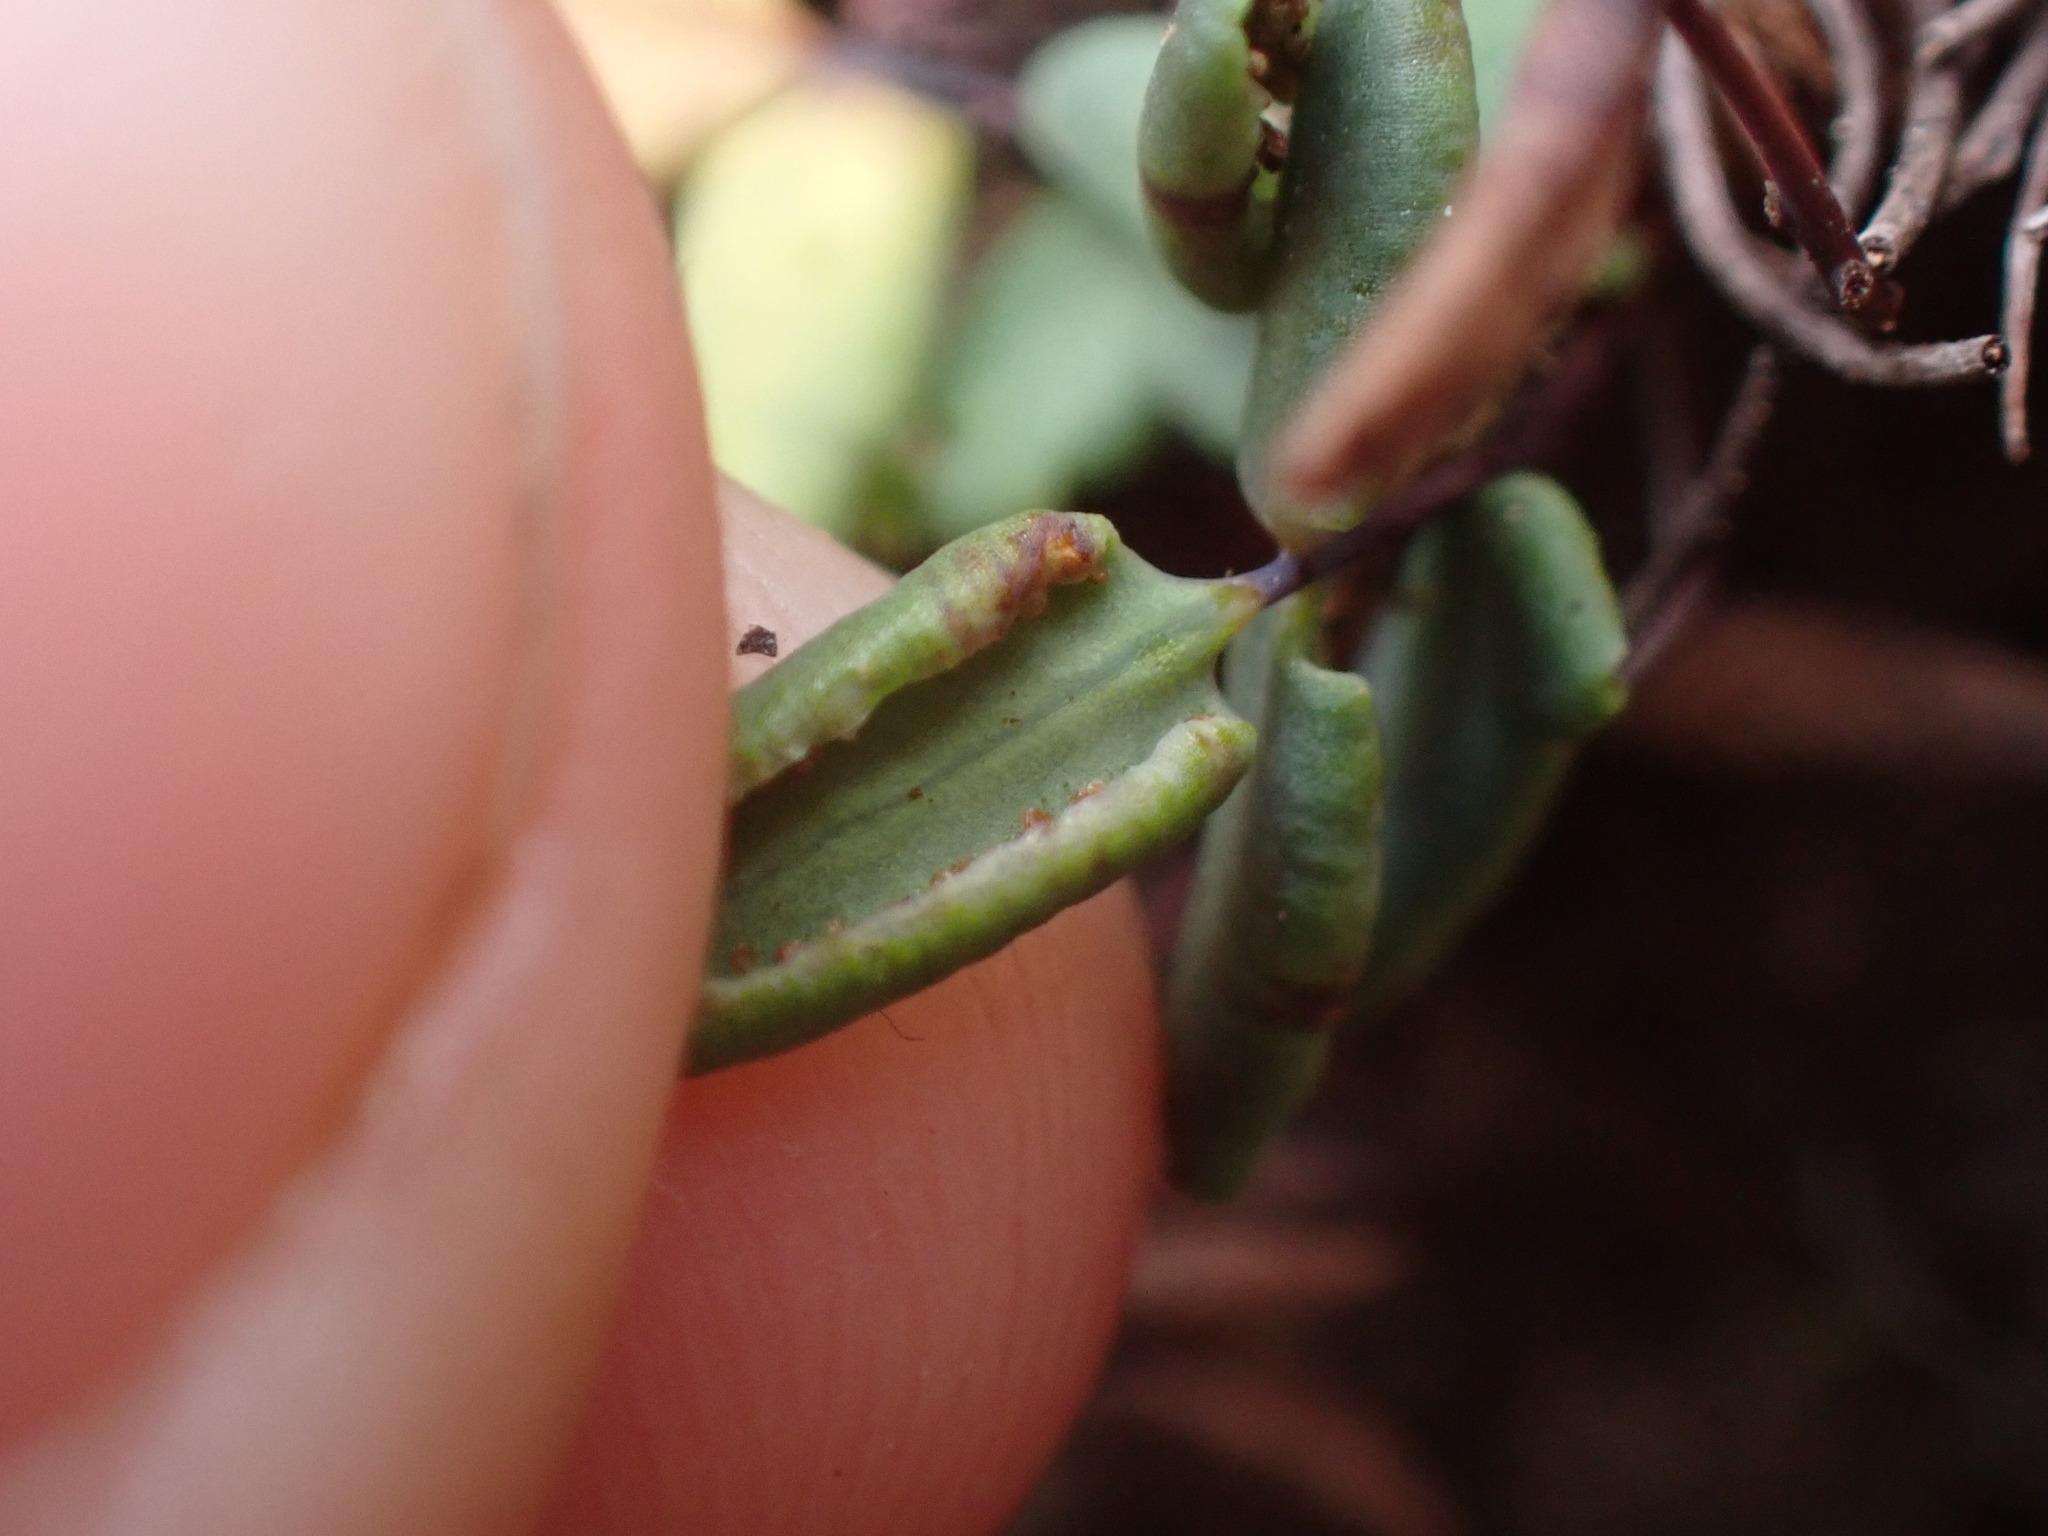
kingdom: Plantae
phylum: Tracheophyta
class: Polypodiopsida
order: Polypodiales
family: Pteridaceae
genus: Pellaea
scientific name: Pellaea glabella
